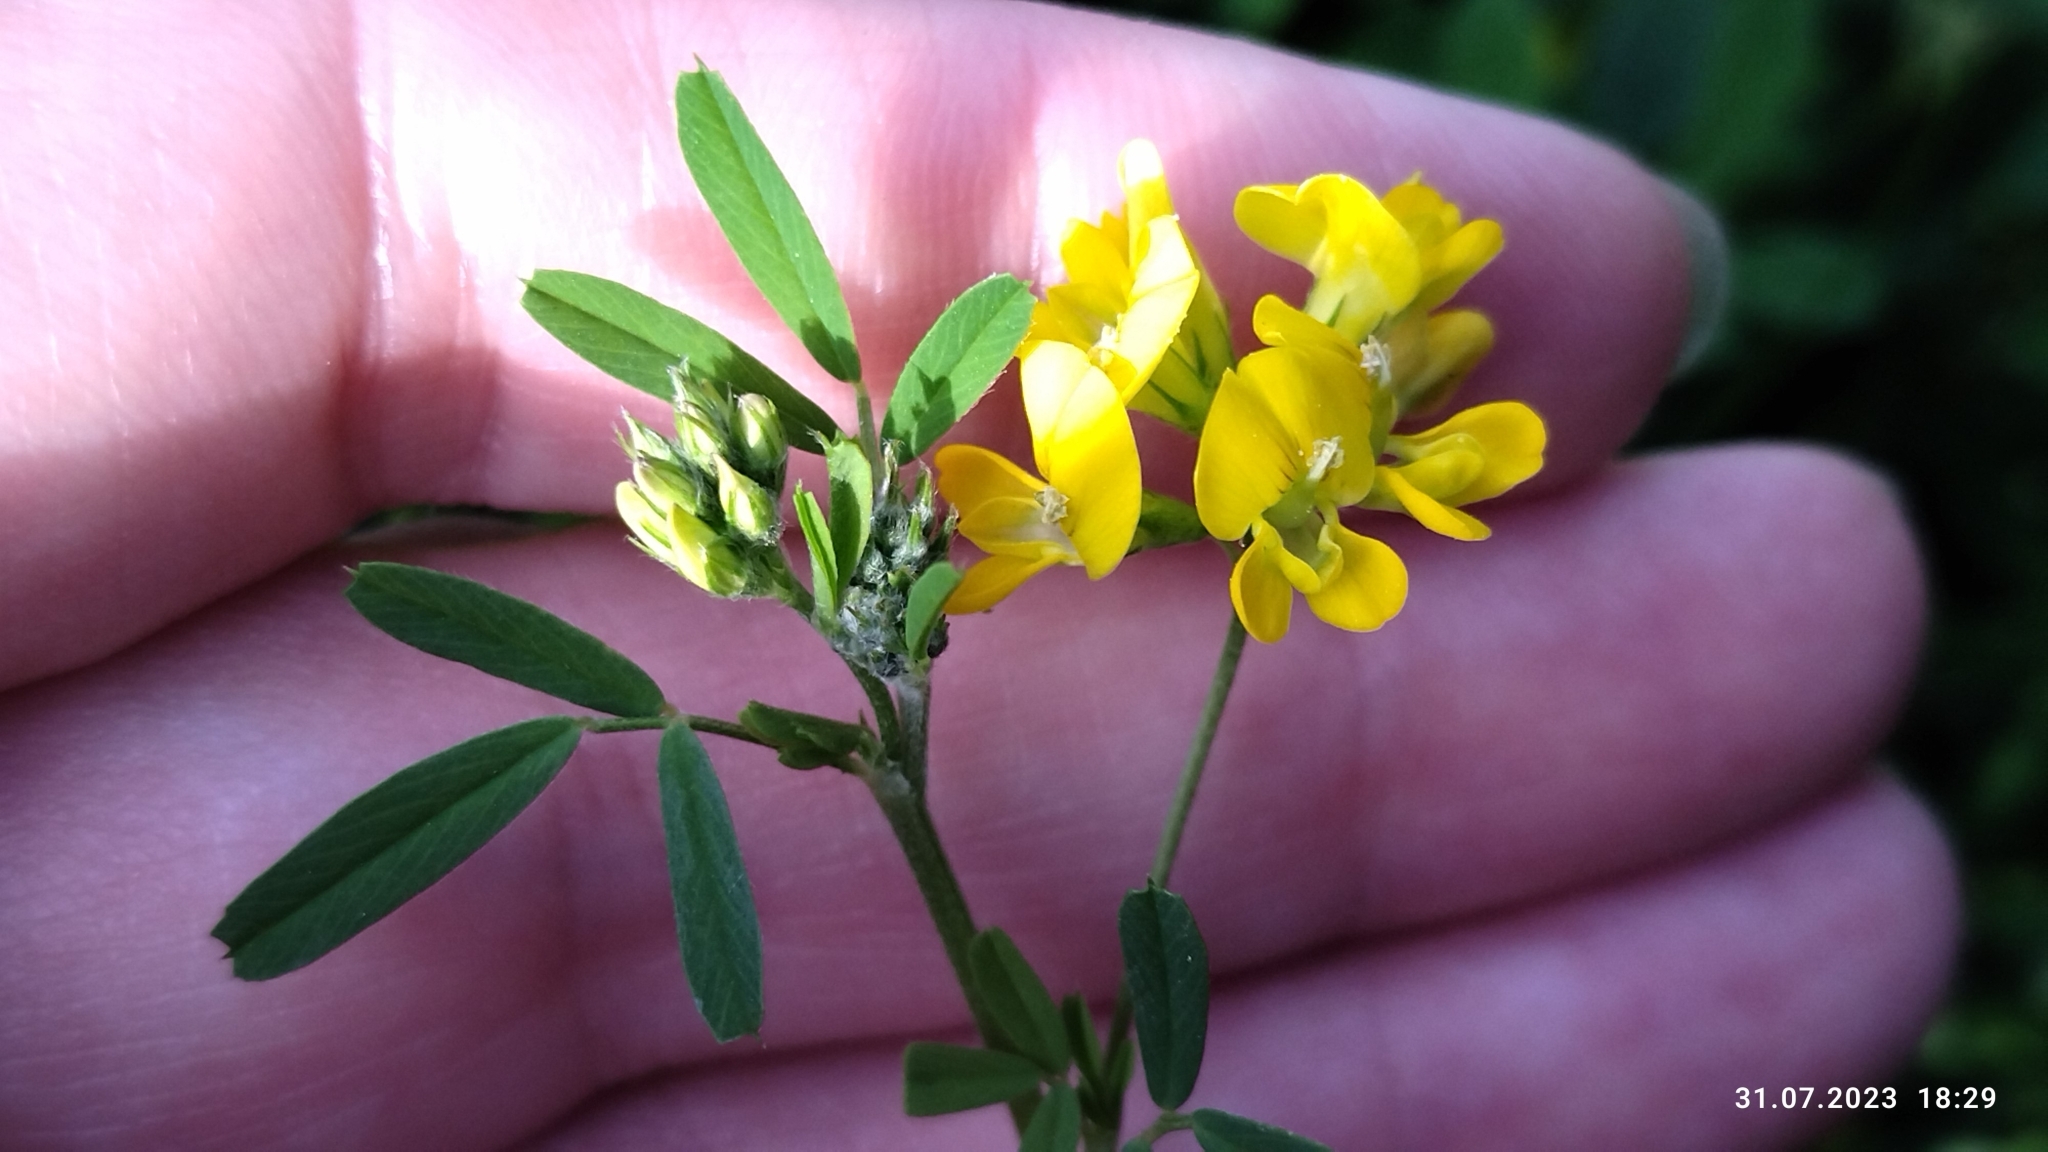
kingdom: Plantae
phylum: Tracheophyta
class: Magnoliopsida
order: Fabales
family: Fabaceae
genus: Medicago
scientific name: Medicago falcata
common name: Sickle medick
